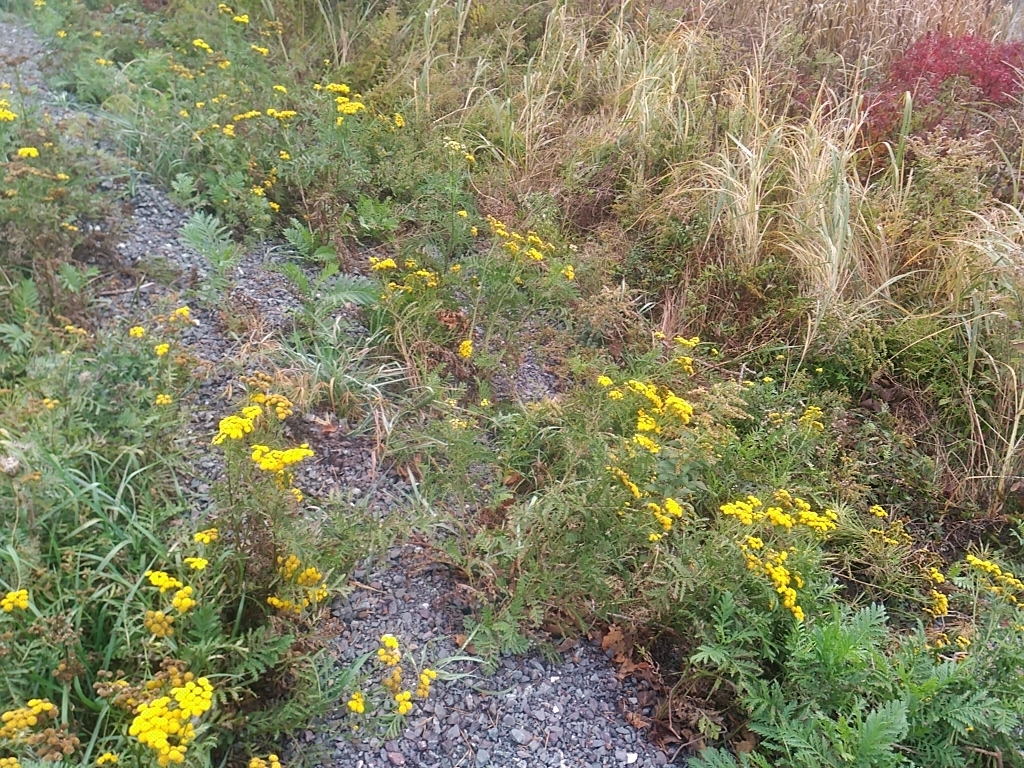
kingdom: Plantae
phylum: Tracheophyta
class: Magnoliopsida
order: Asterales
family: Asteraceae
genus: Tanacetum
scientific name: Tanacetum vulgare
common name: Common tansy
